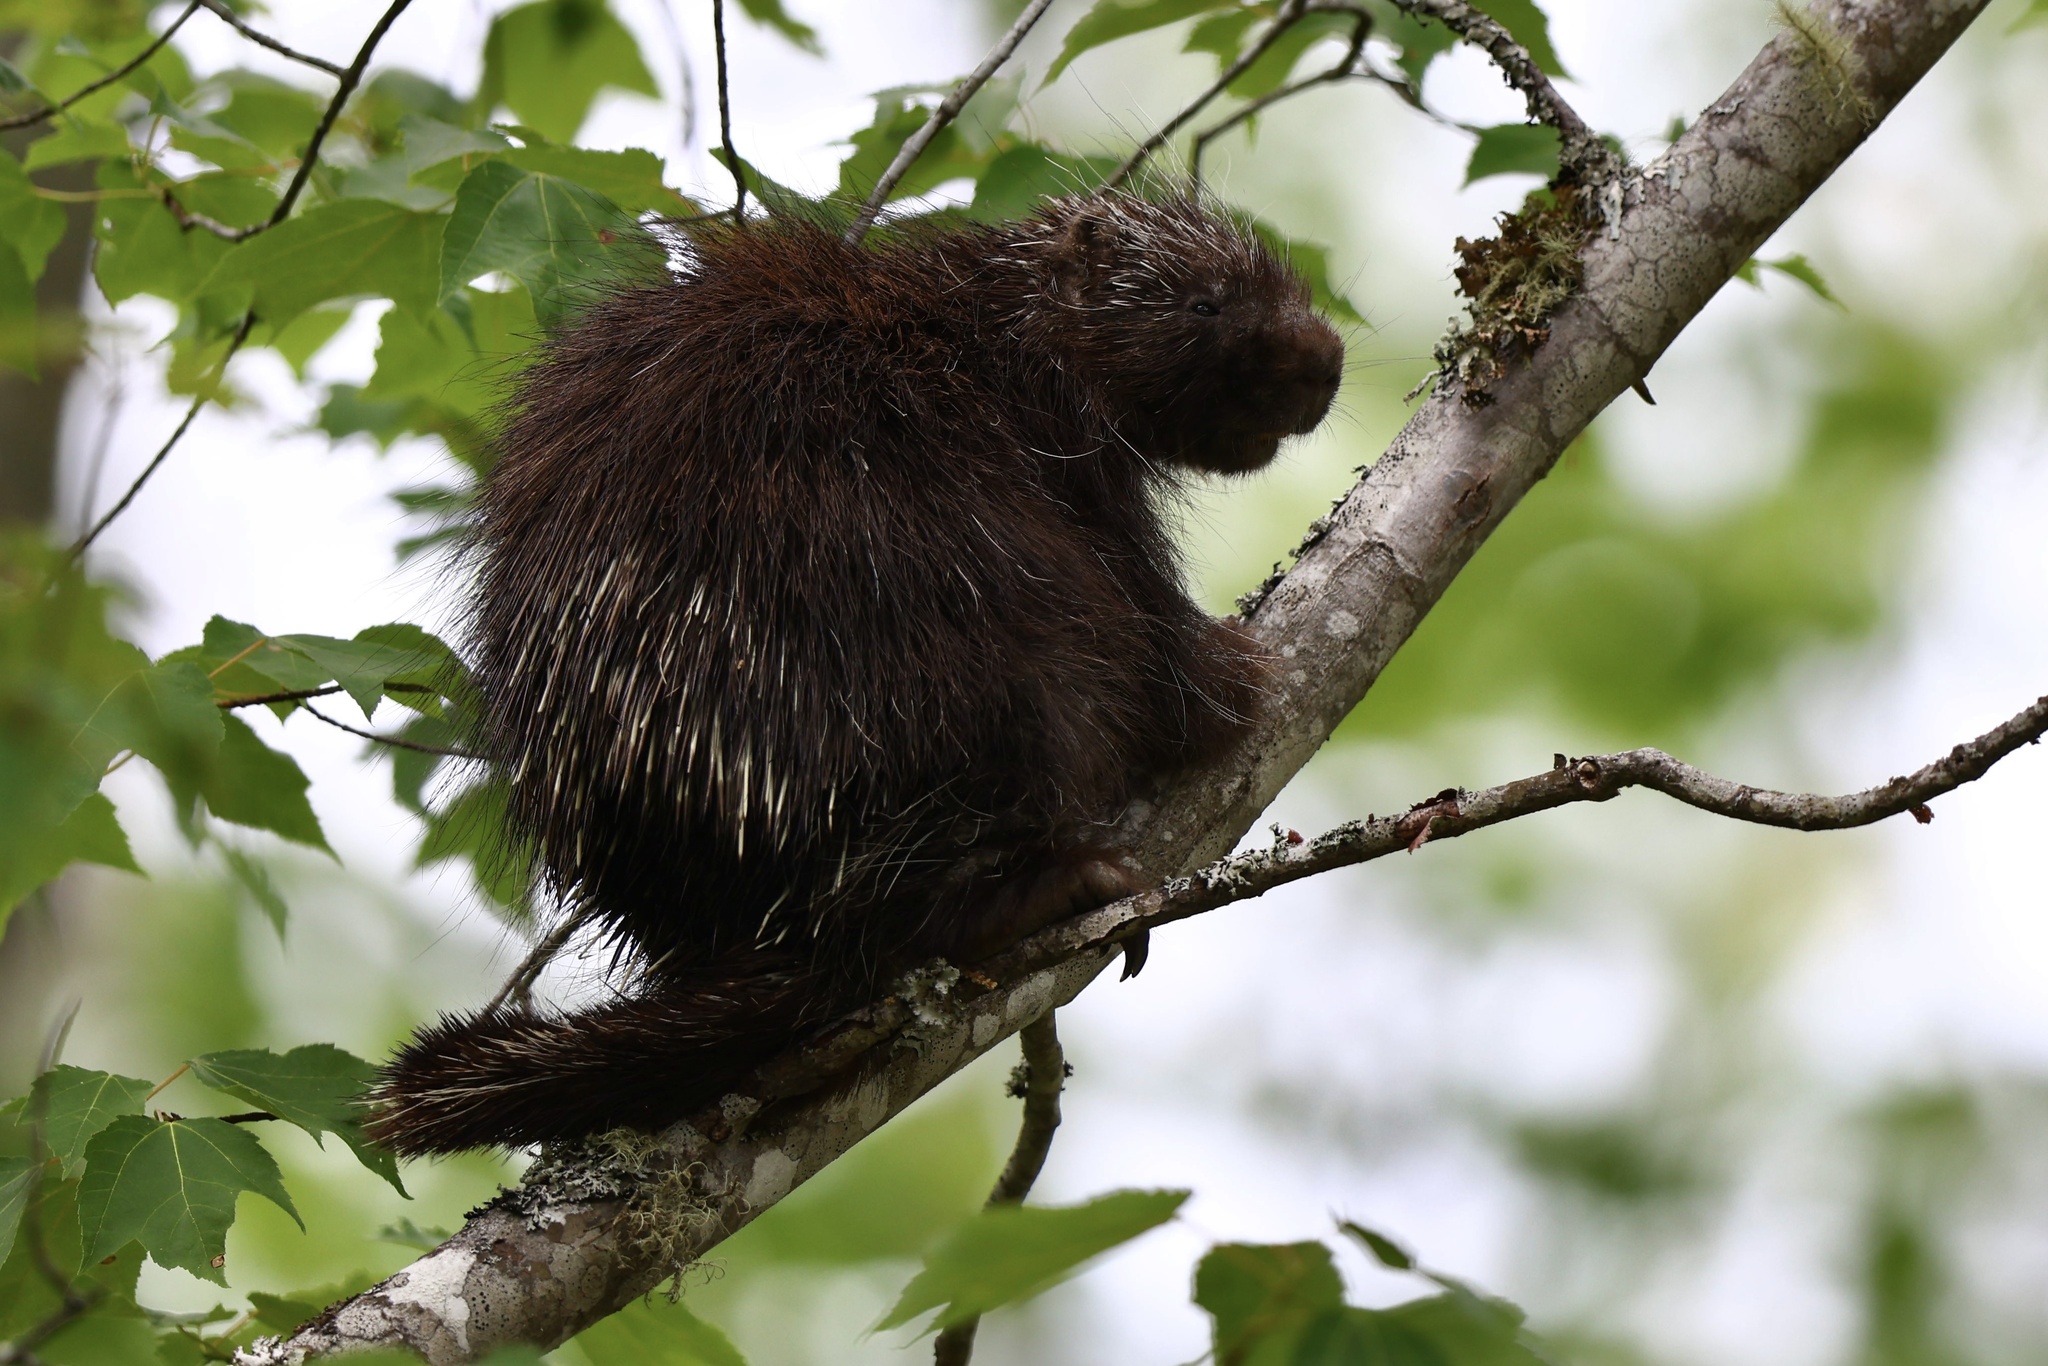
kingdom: Animalia
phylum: Chordata
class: Mammalia
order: Rodentia
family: Erethizontidae
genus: Erethizon
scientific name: Erethizon dorsatus
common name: North american porcupine
